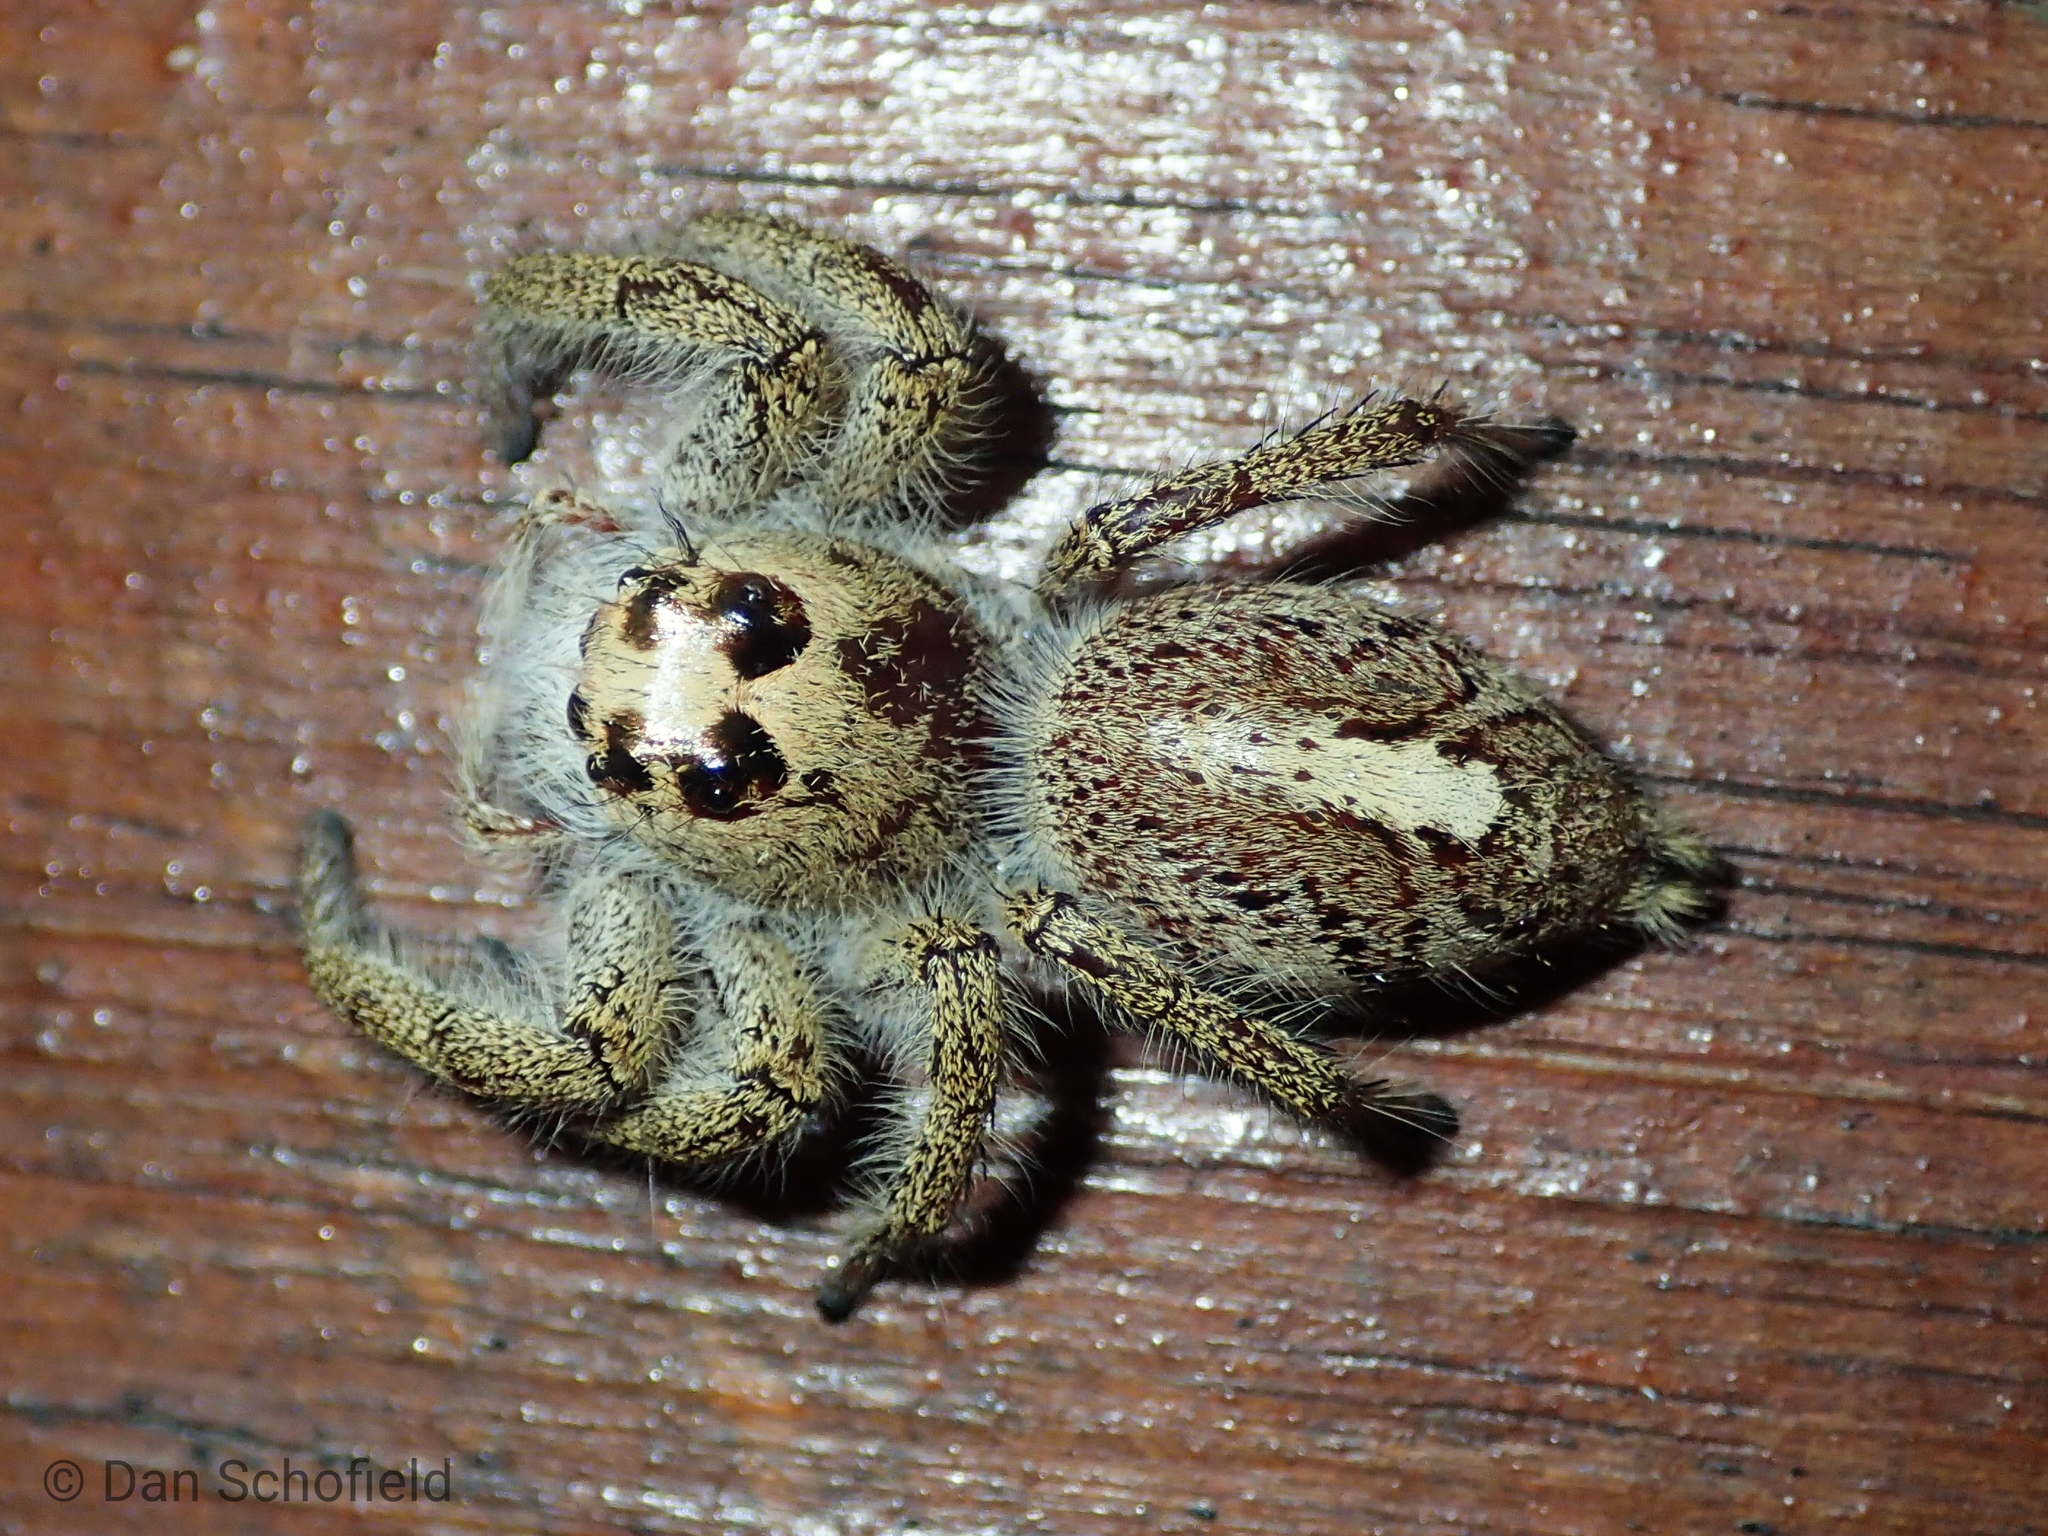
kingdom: Animalia
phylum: Arthropoda
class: Arachnida
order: Araneae
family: Salticidae
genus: Hyllus
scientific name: Hyllus walckenaeri
